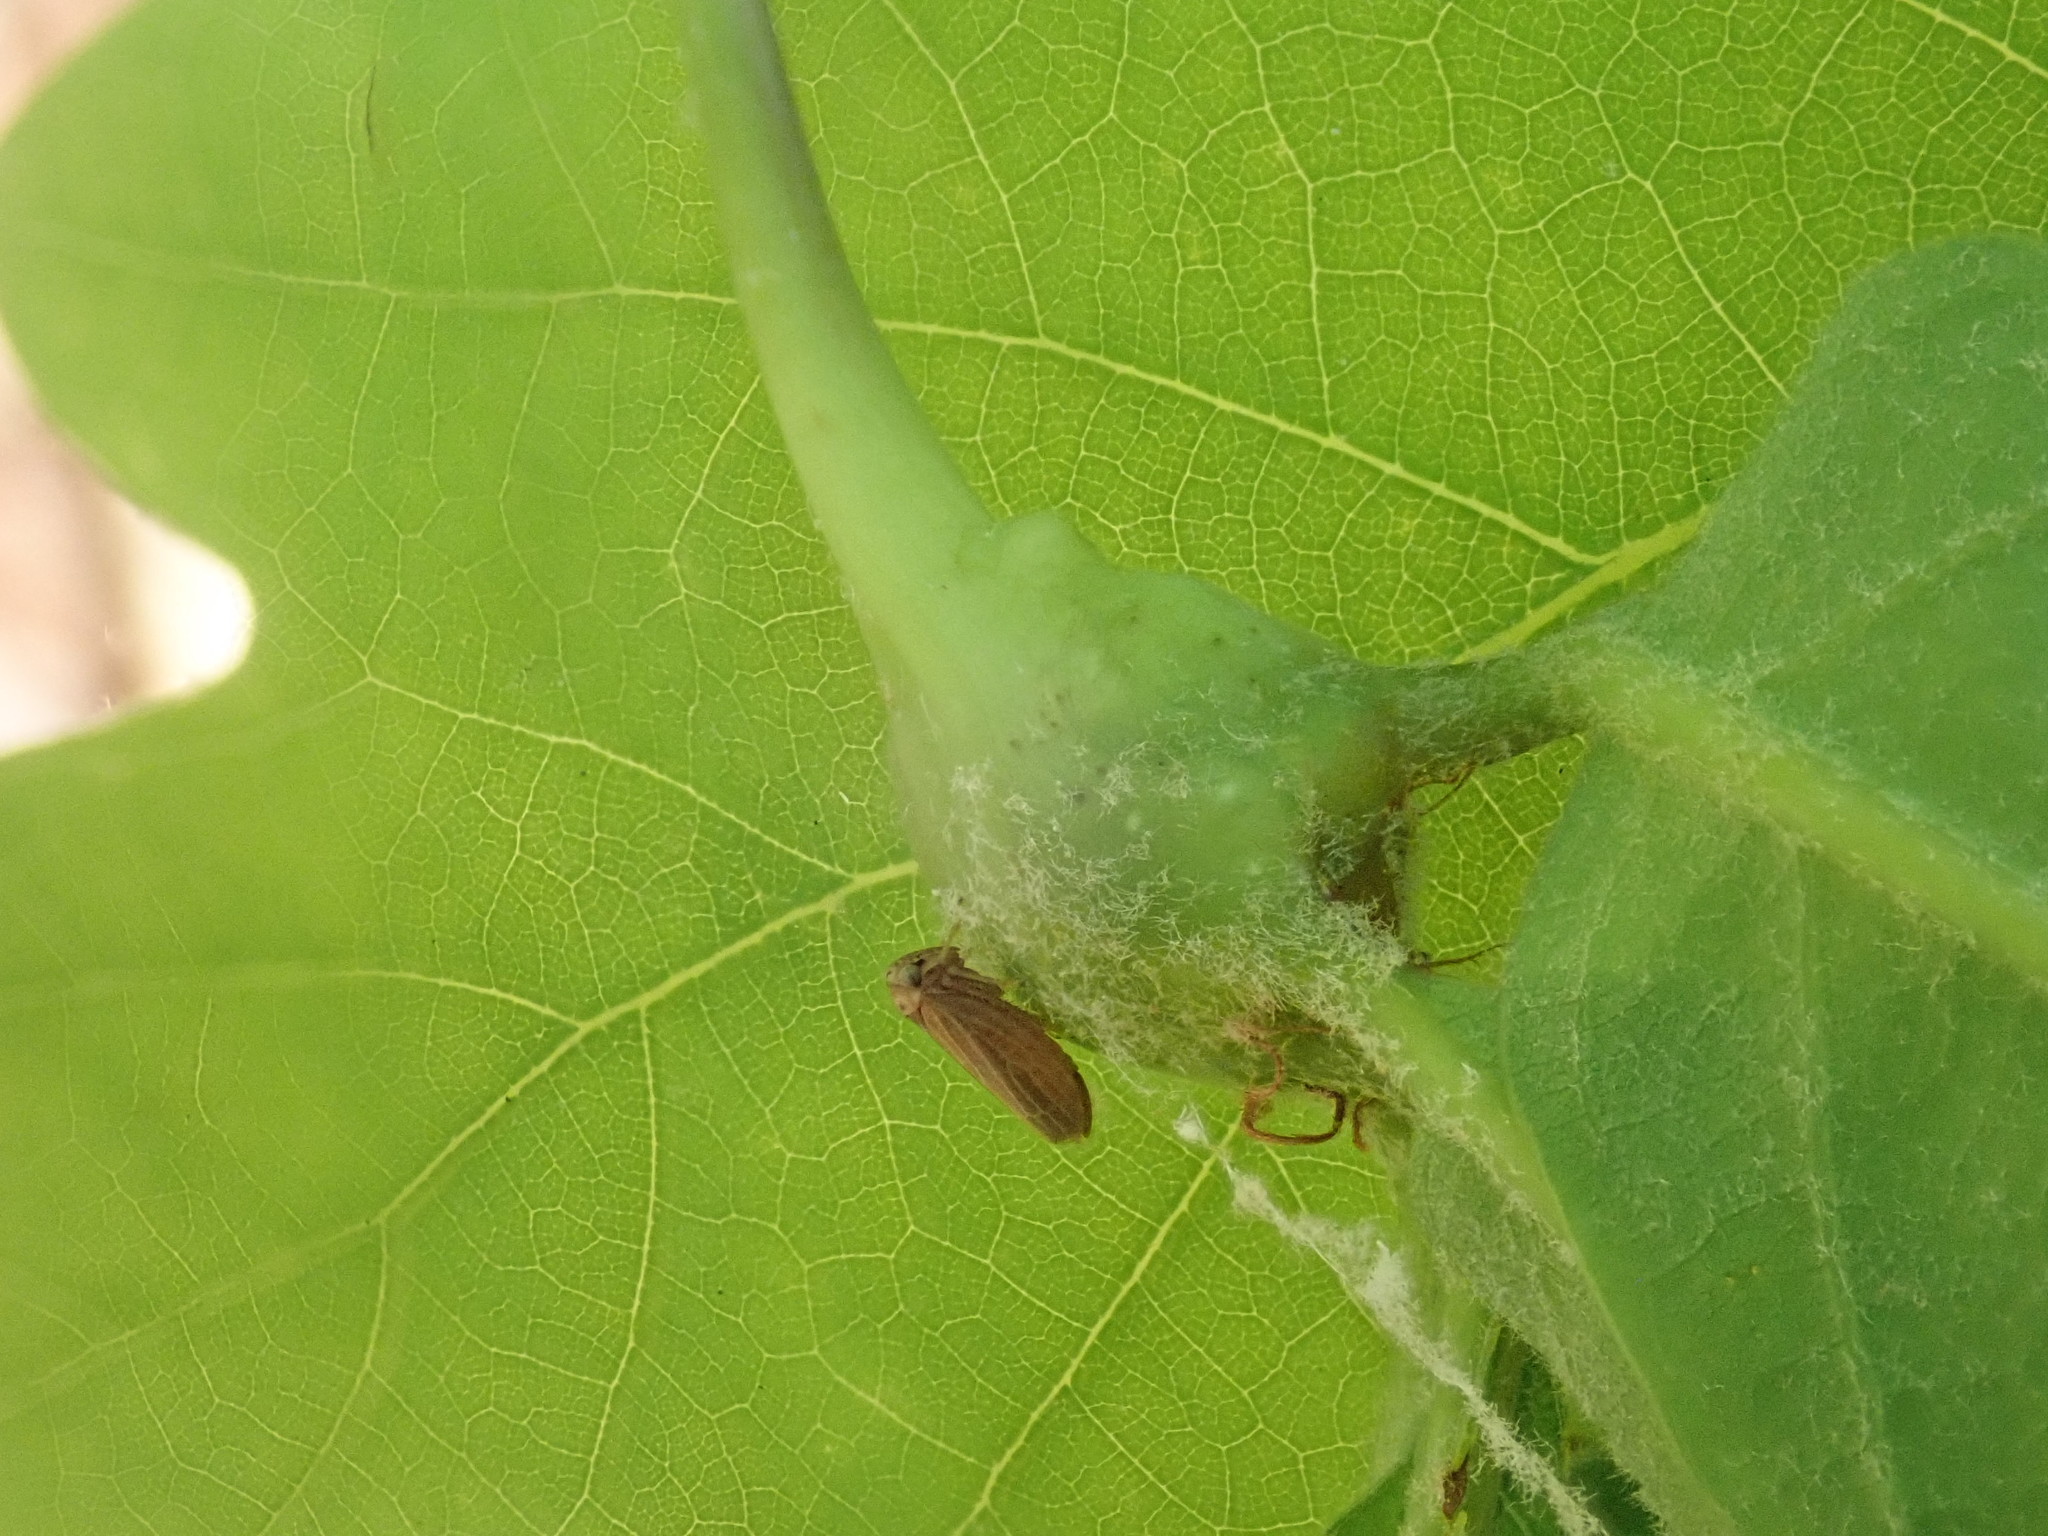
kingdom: Animalia
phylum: Arthropoda
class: Insecta
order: Hymenoptera
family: Cynipidae
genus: Callirhytis
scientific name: Callirhytis clavula
